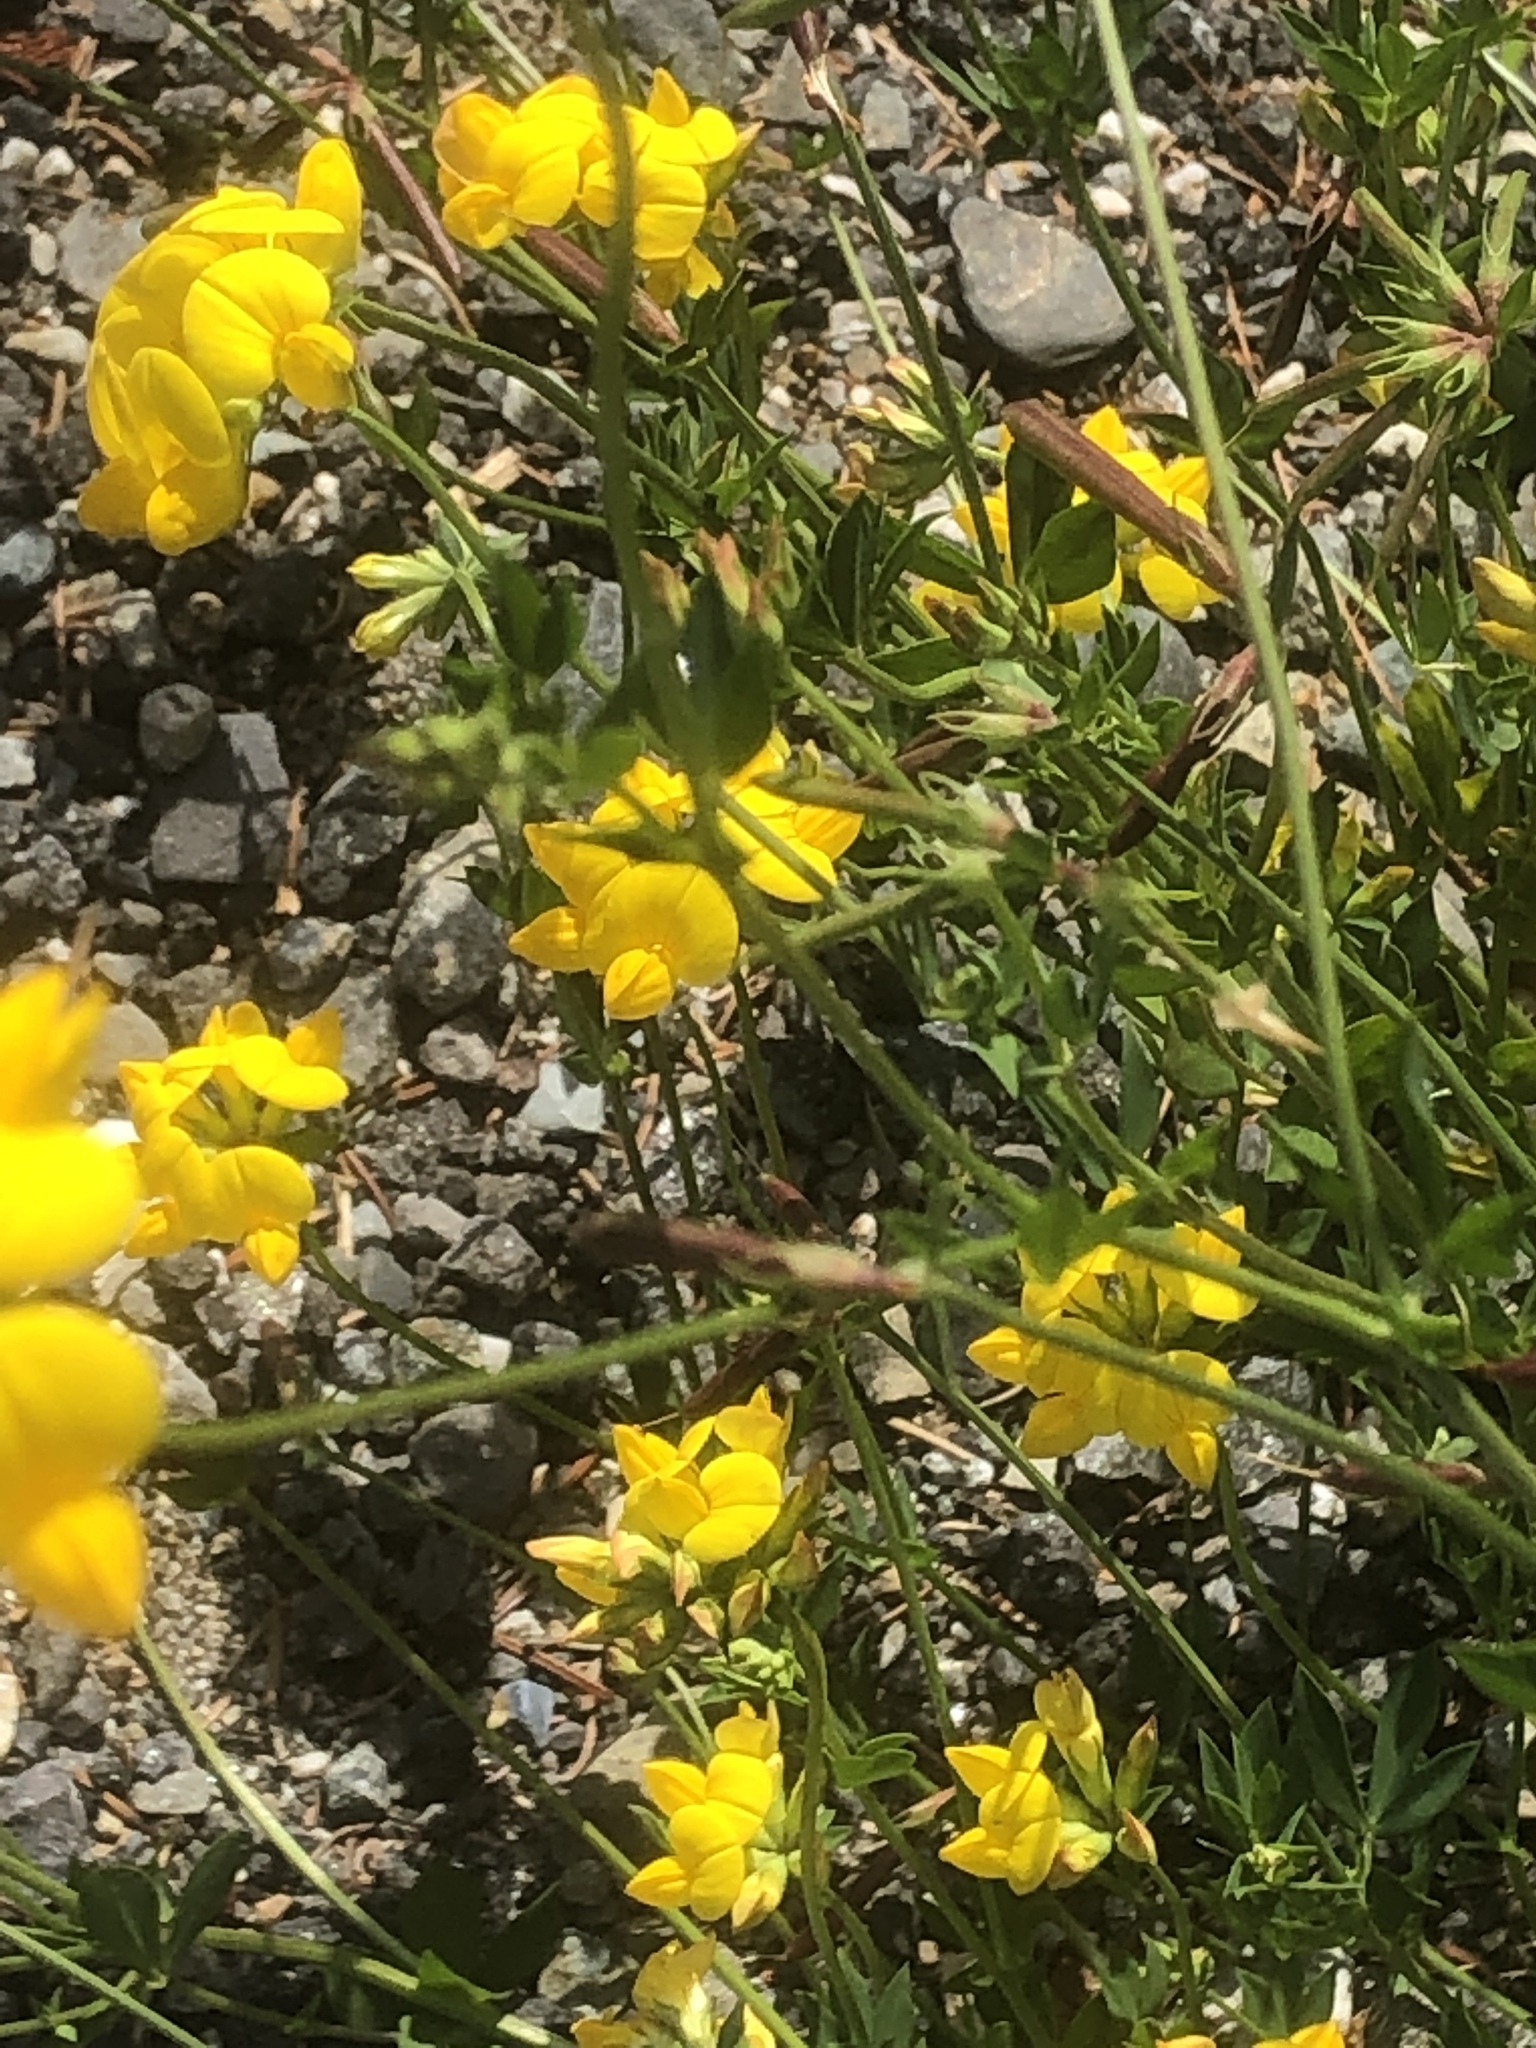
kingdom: Plantae
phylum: Tracheophyta
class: Magnoliopsida
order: Fabales
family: Fabaceae
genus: Lotus
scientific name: Lotus corniculatus
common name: Common bird's-foot-trefoil
